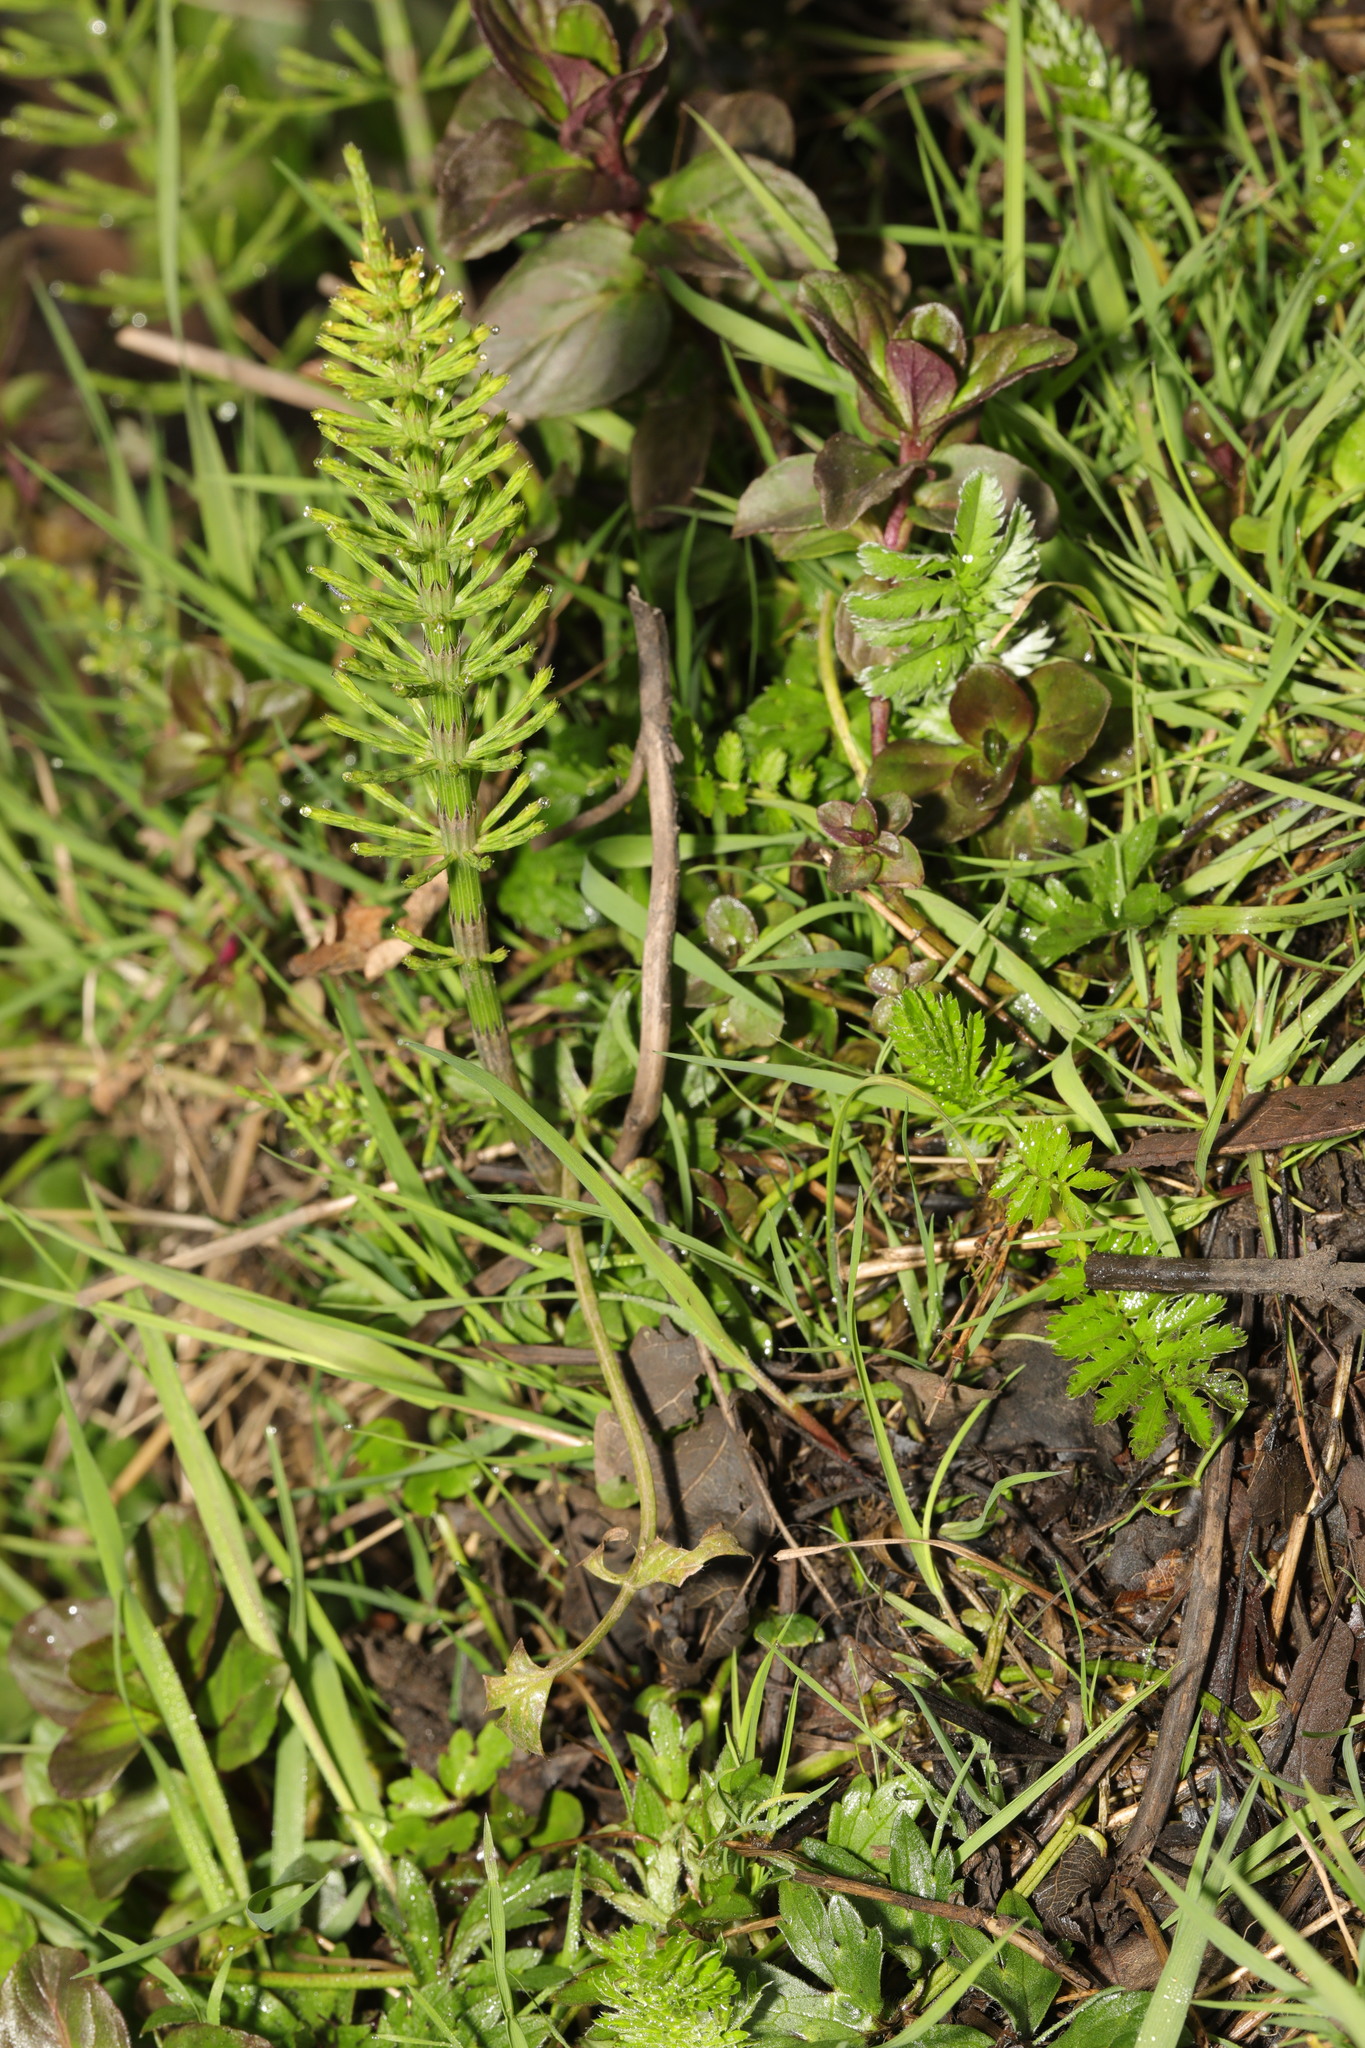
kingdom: Plantae
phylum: Tracheophyta
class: Polypodiopsida
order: Equisetales
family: Equisetaceae
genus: Equisetum
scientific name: Equisetum arvense
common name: Field horsetail
